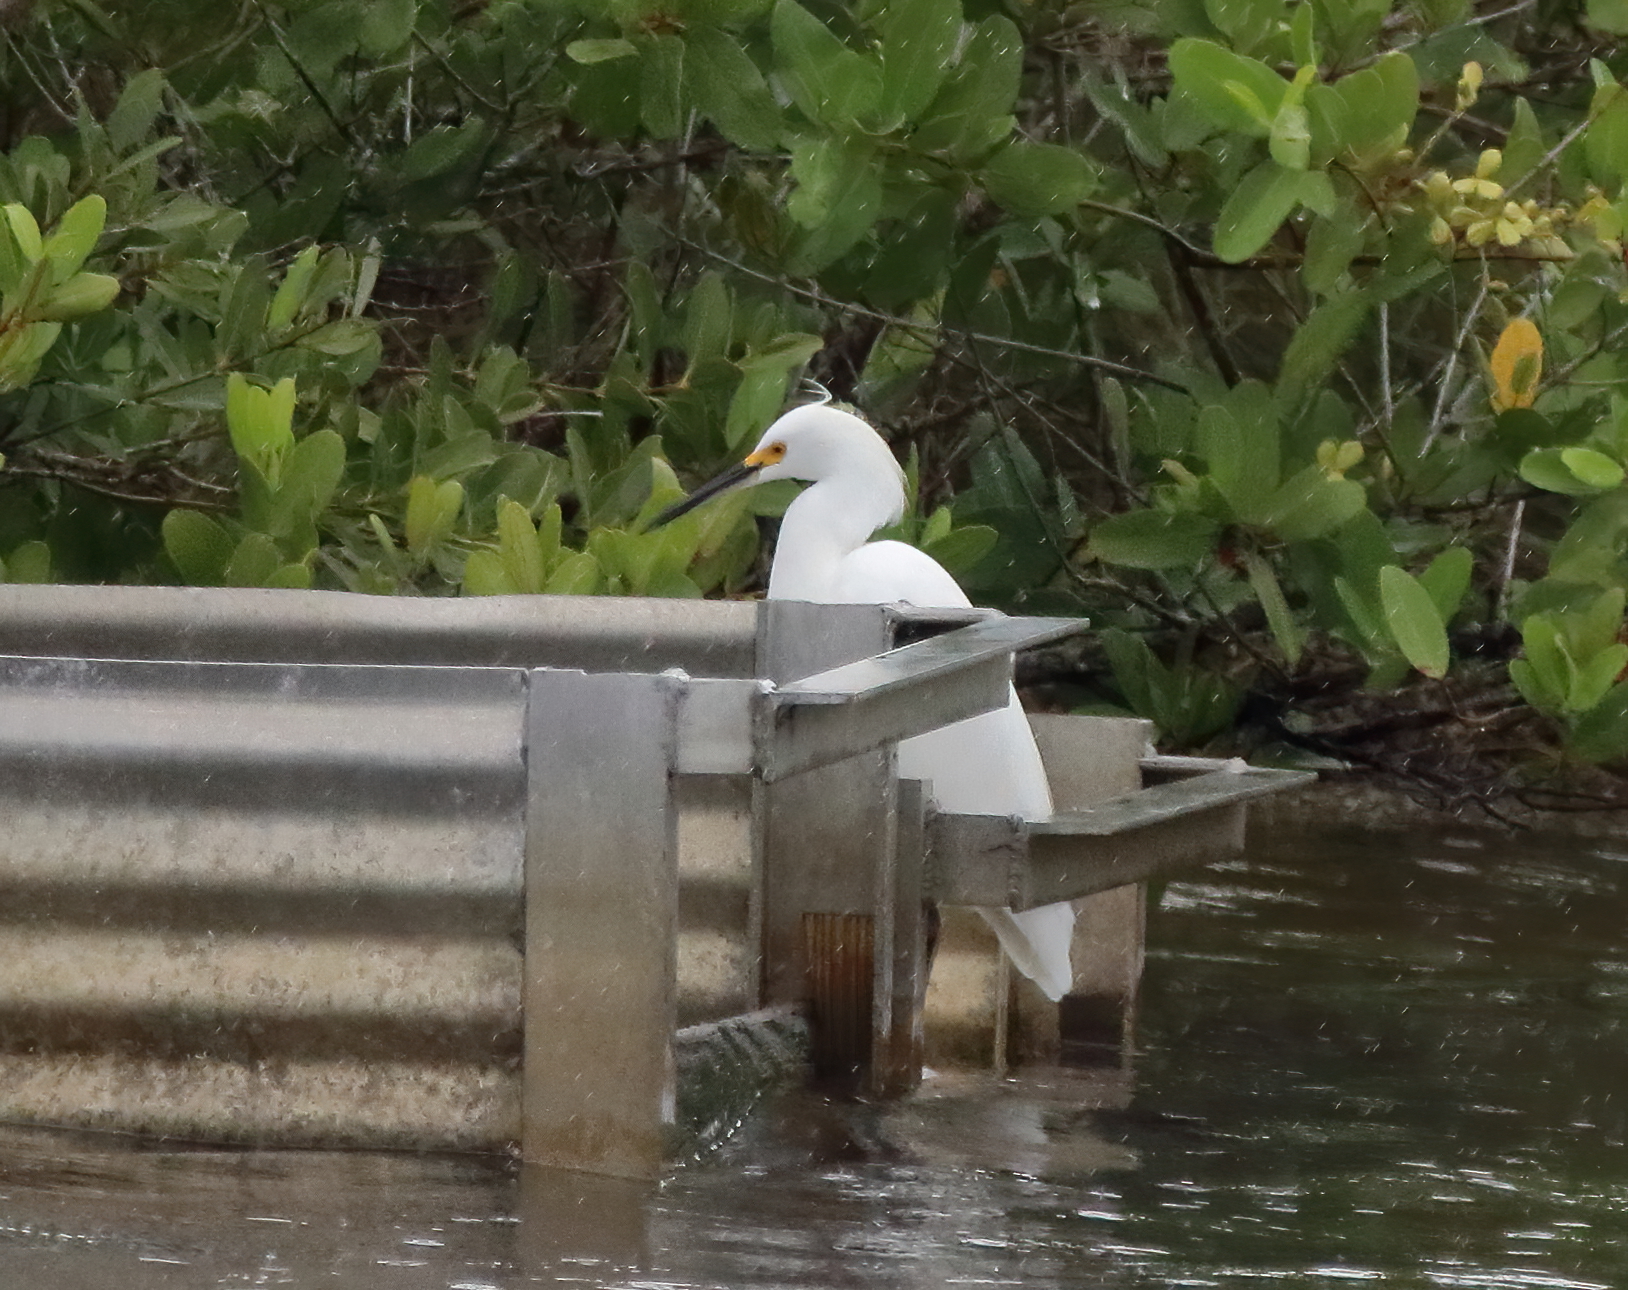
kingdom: Animalia
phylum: Chordata
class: Aves
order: Pelecaniformes
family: Ardeidae
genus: Egretta
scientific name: Egretta thula
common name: Snowy egret
